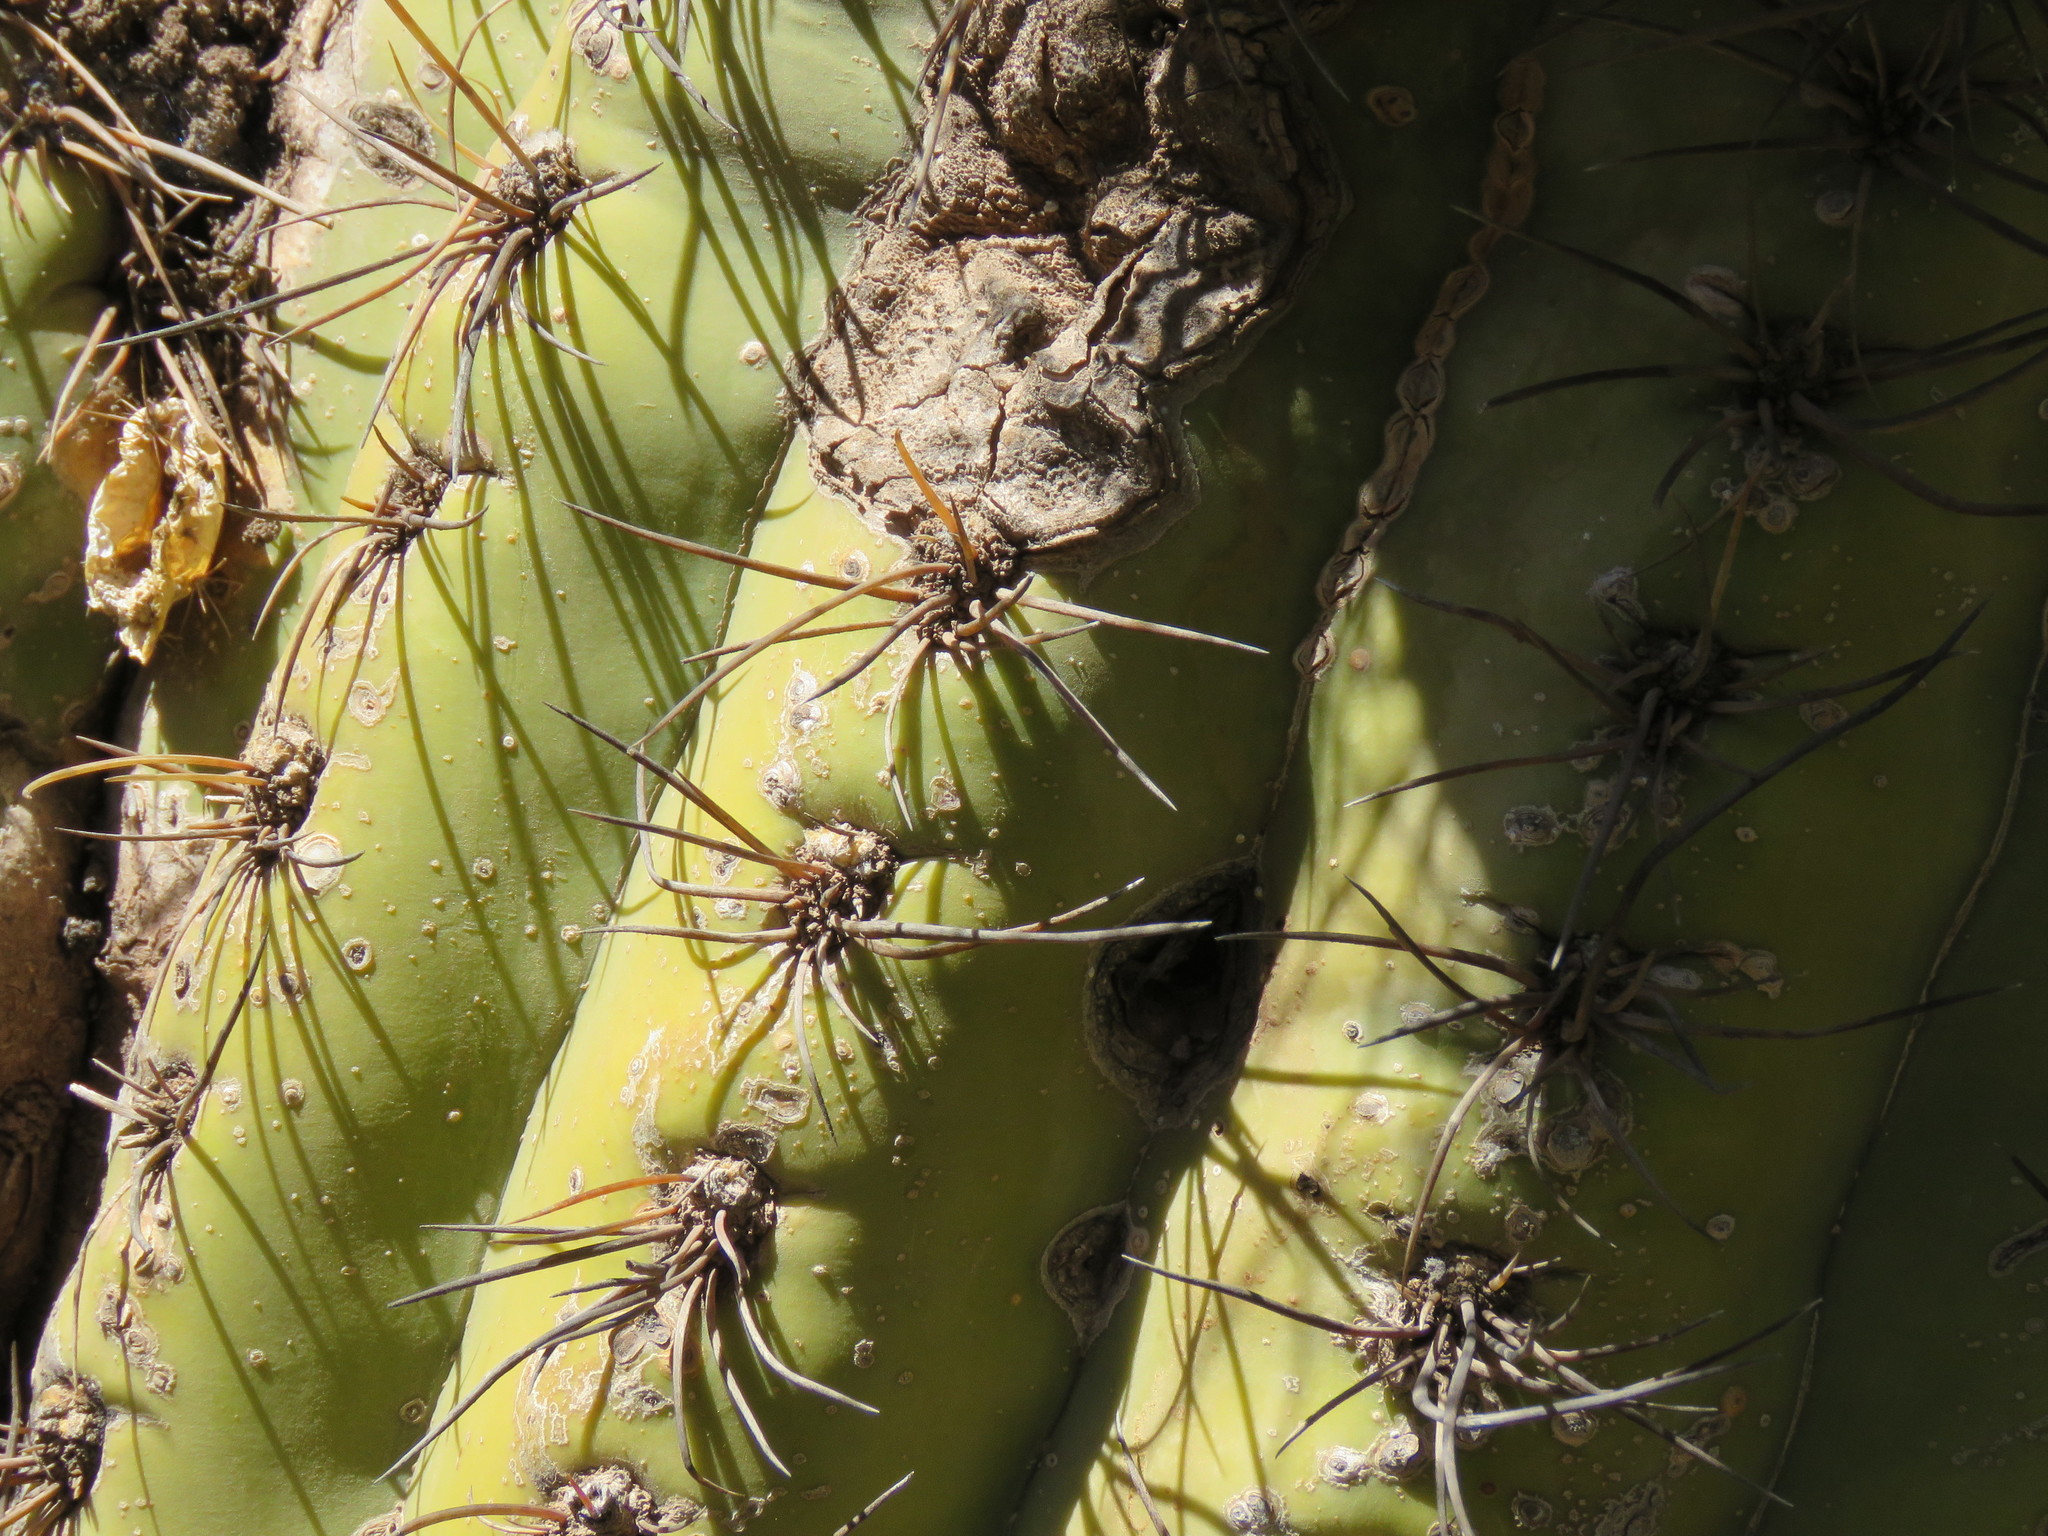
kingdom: Plantae
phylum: Tracheophyta
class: Magnoliopsida
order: Caryophyllales
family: Cactaceae
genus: Leucostele
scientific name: Leucostele terscheckii
